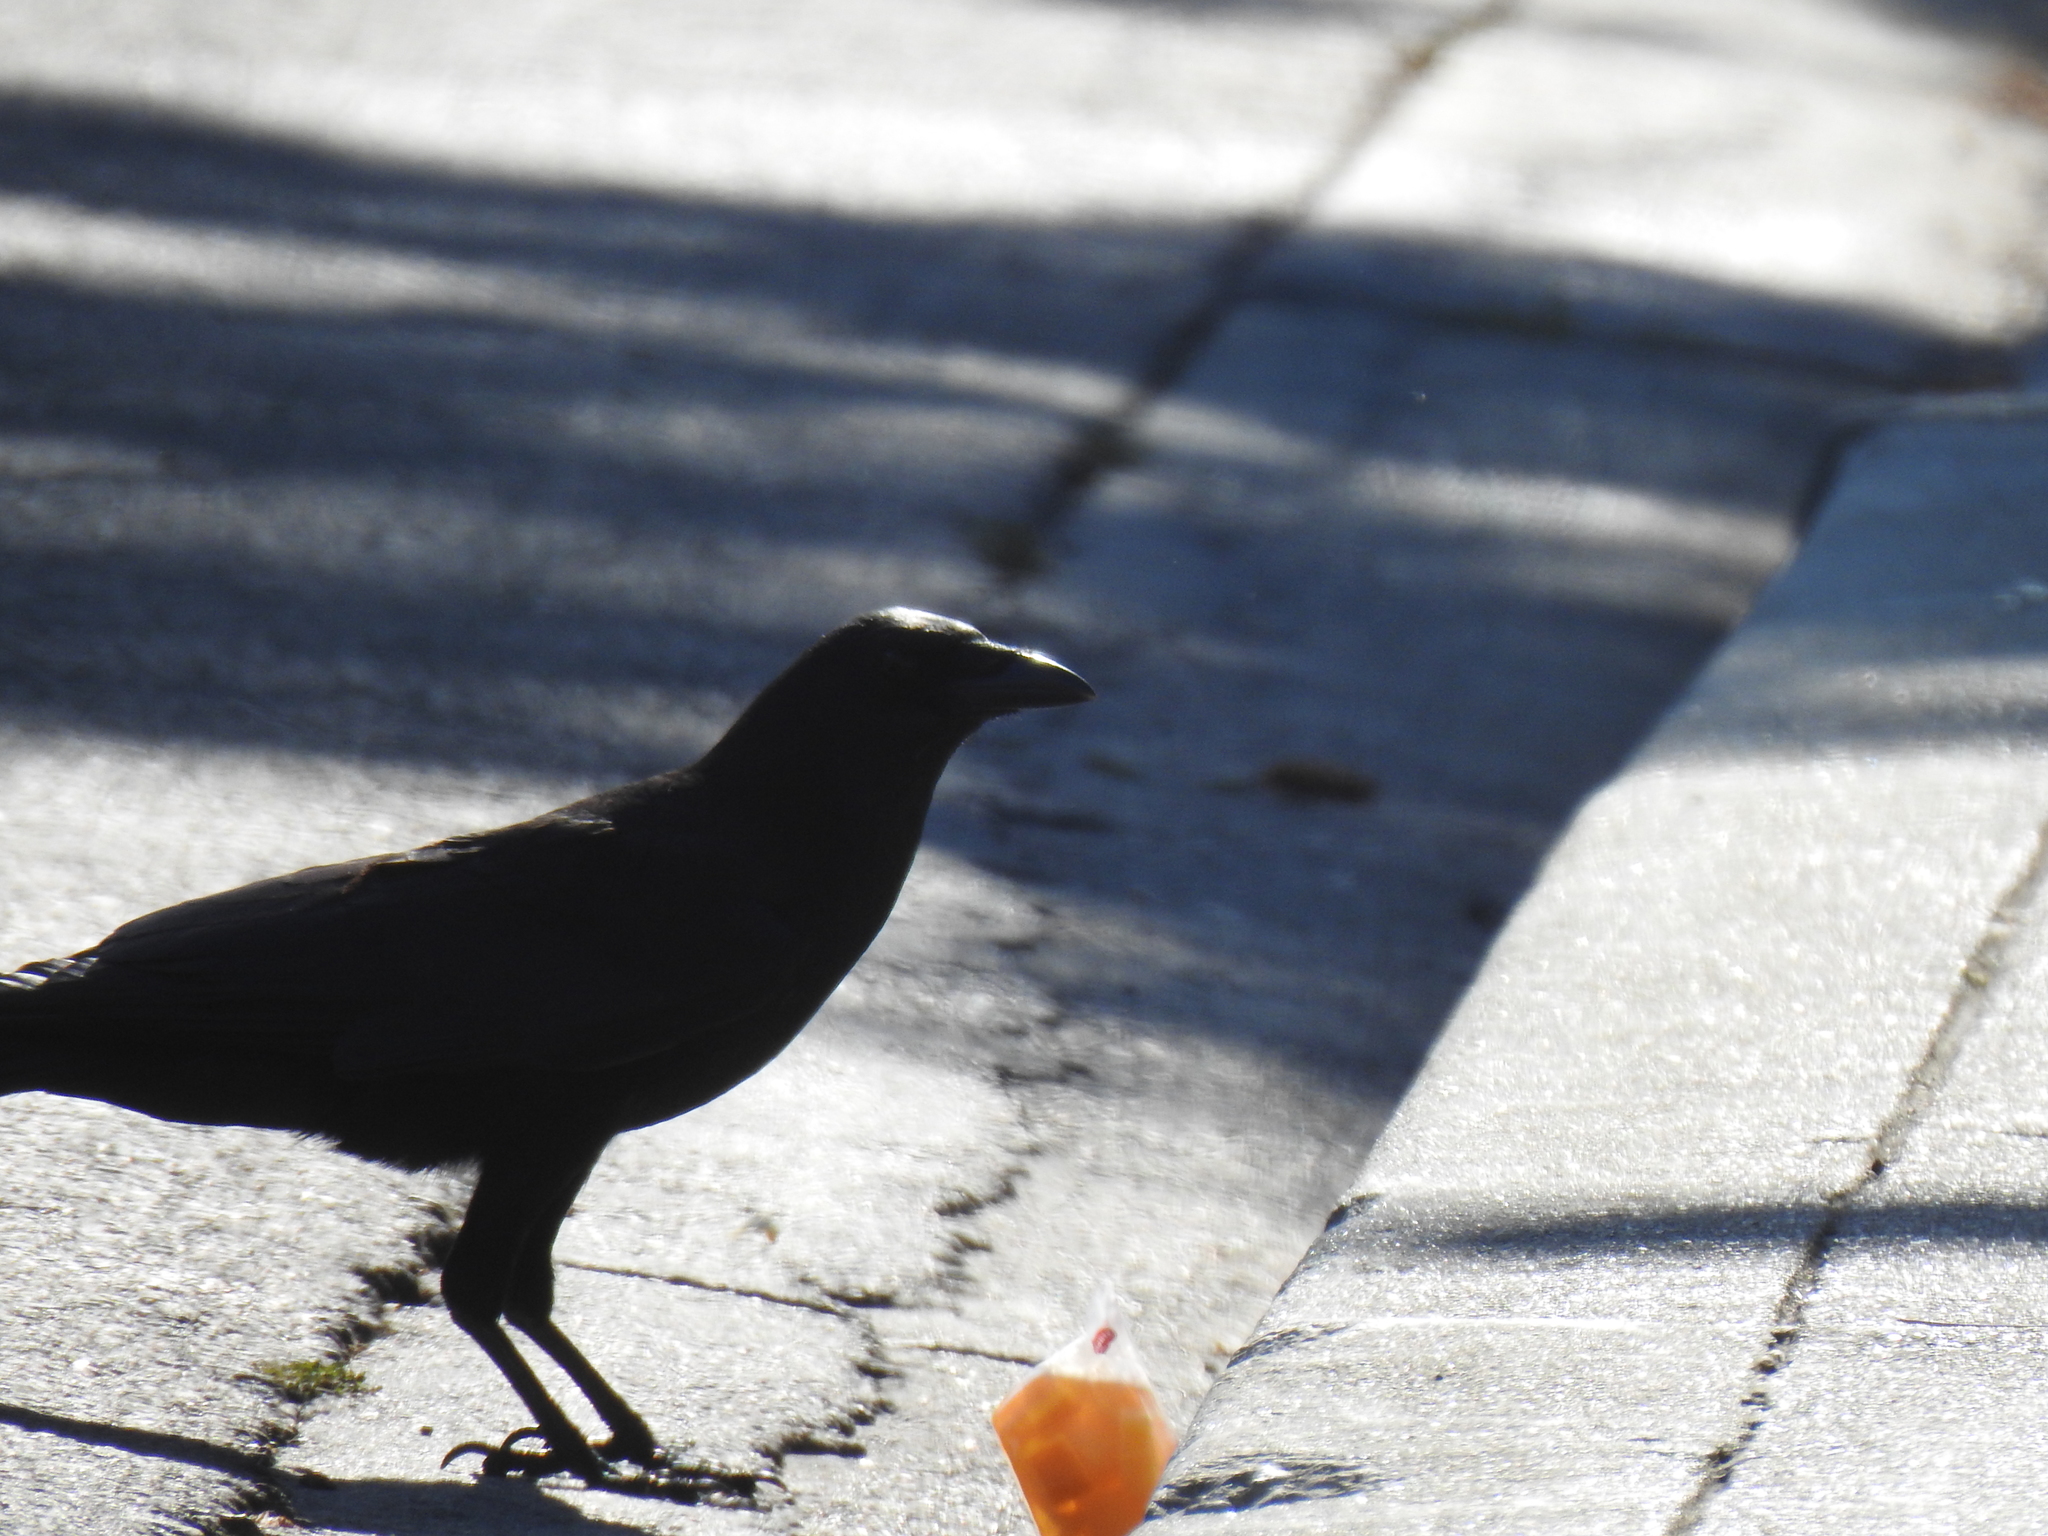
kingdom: Animalia
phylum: Chordata
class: Aves
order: Passeriformes
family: Corvidae
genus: Corvus
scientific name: Corvus brachyrhynchos
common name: American crow
